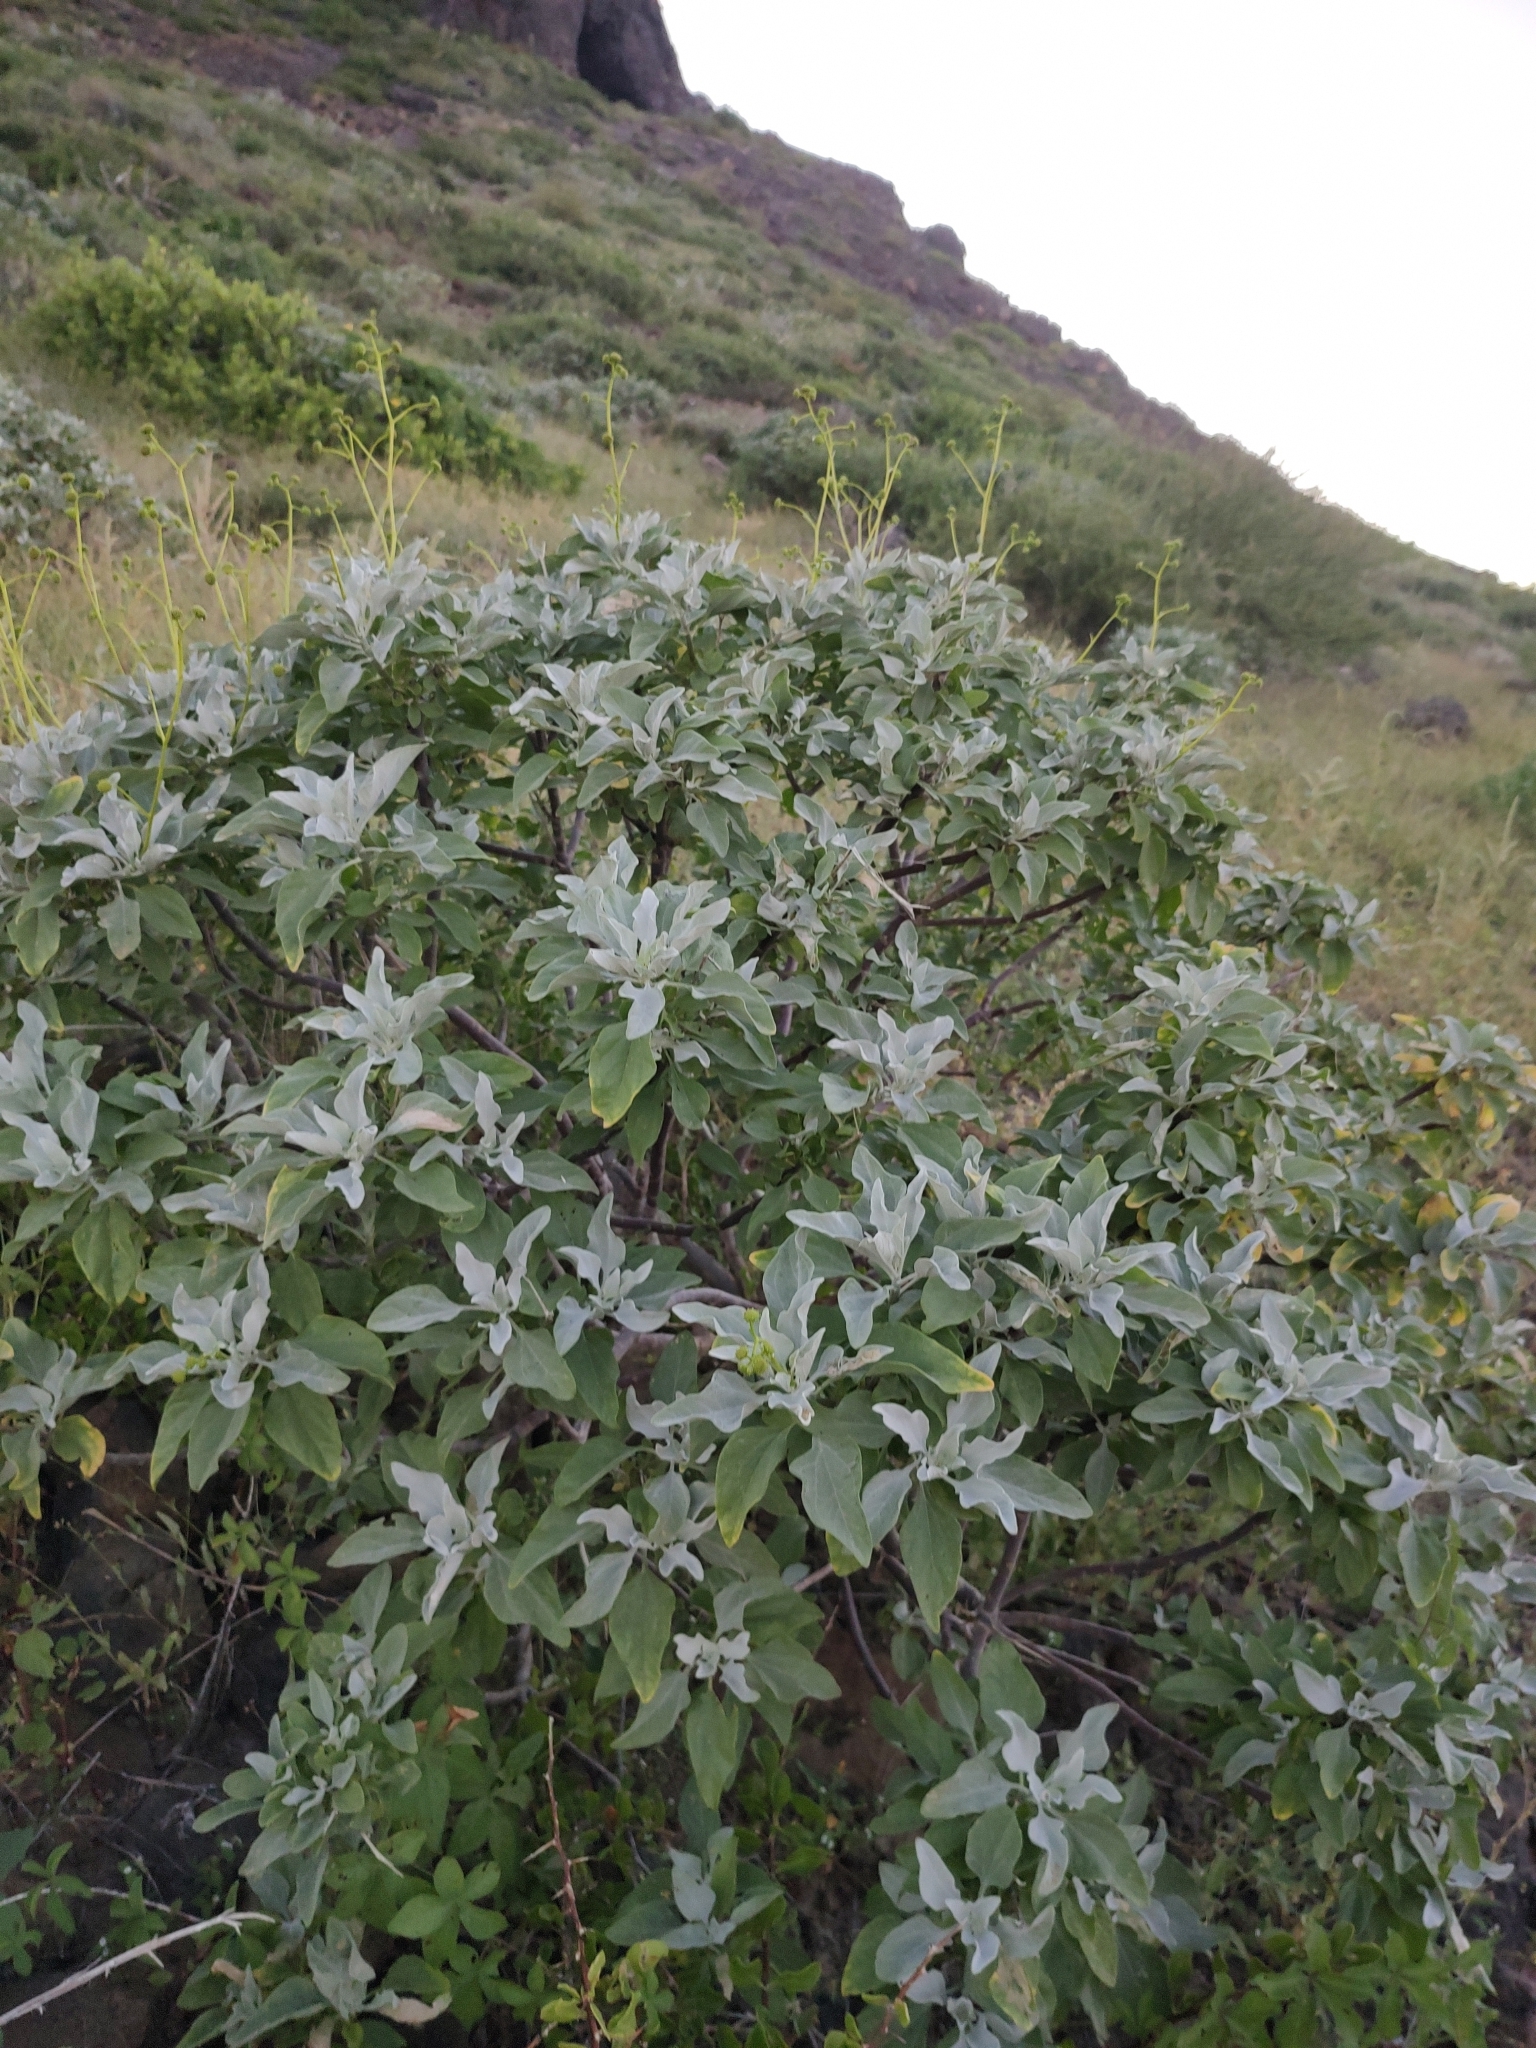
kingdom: Plantae
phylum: Tracheophyta
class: Magnoliopsida
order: Asterales
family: Asteraceae
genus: Encelia
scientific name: Encelia farinosa
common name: Brittlebush
